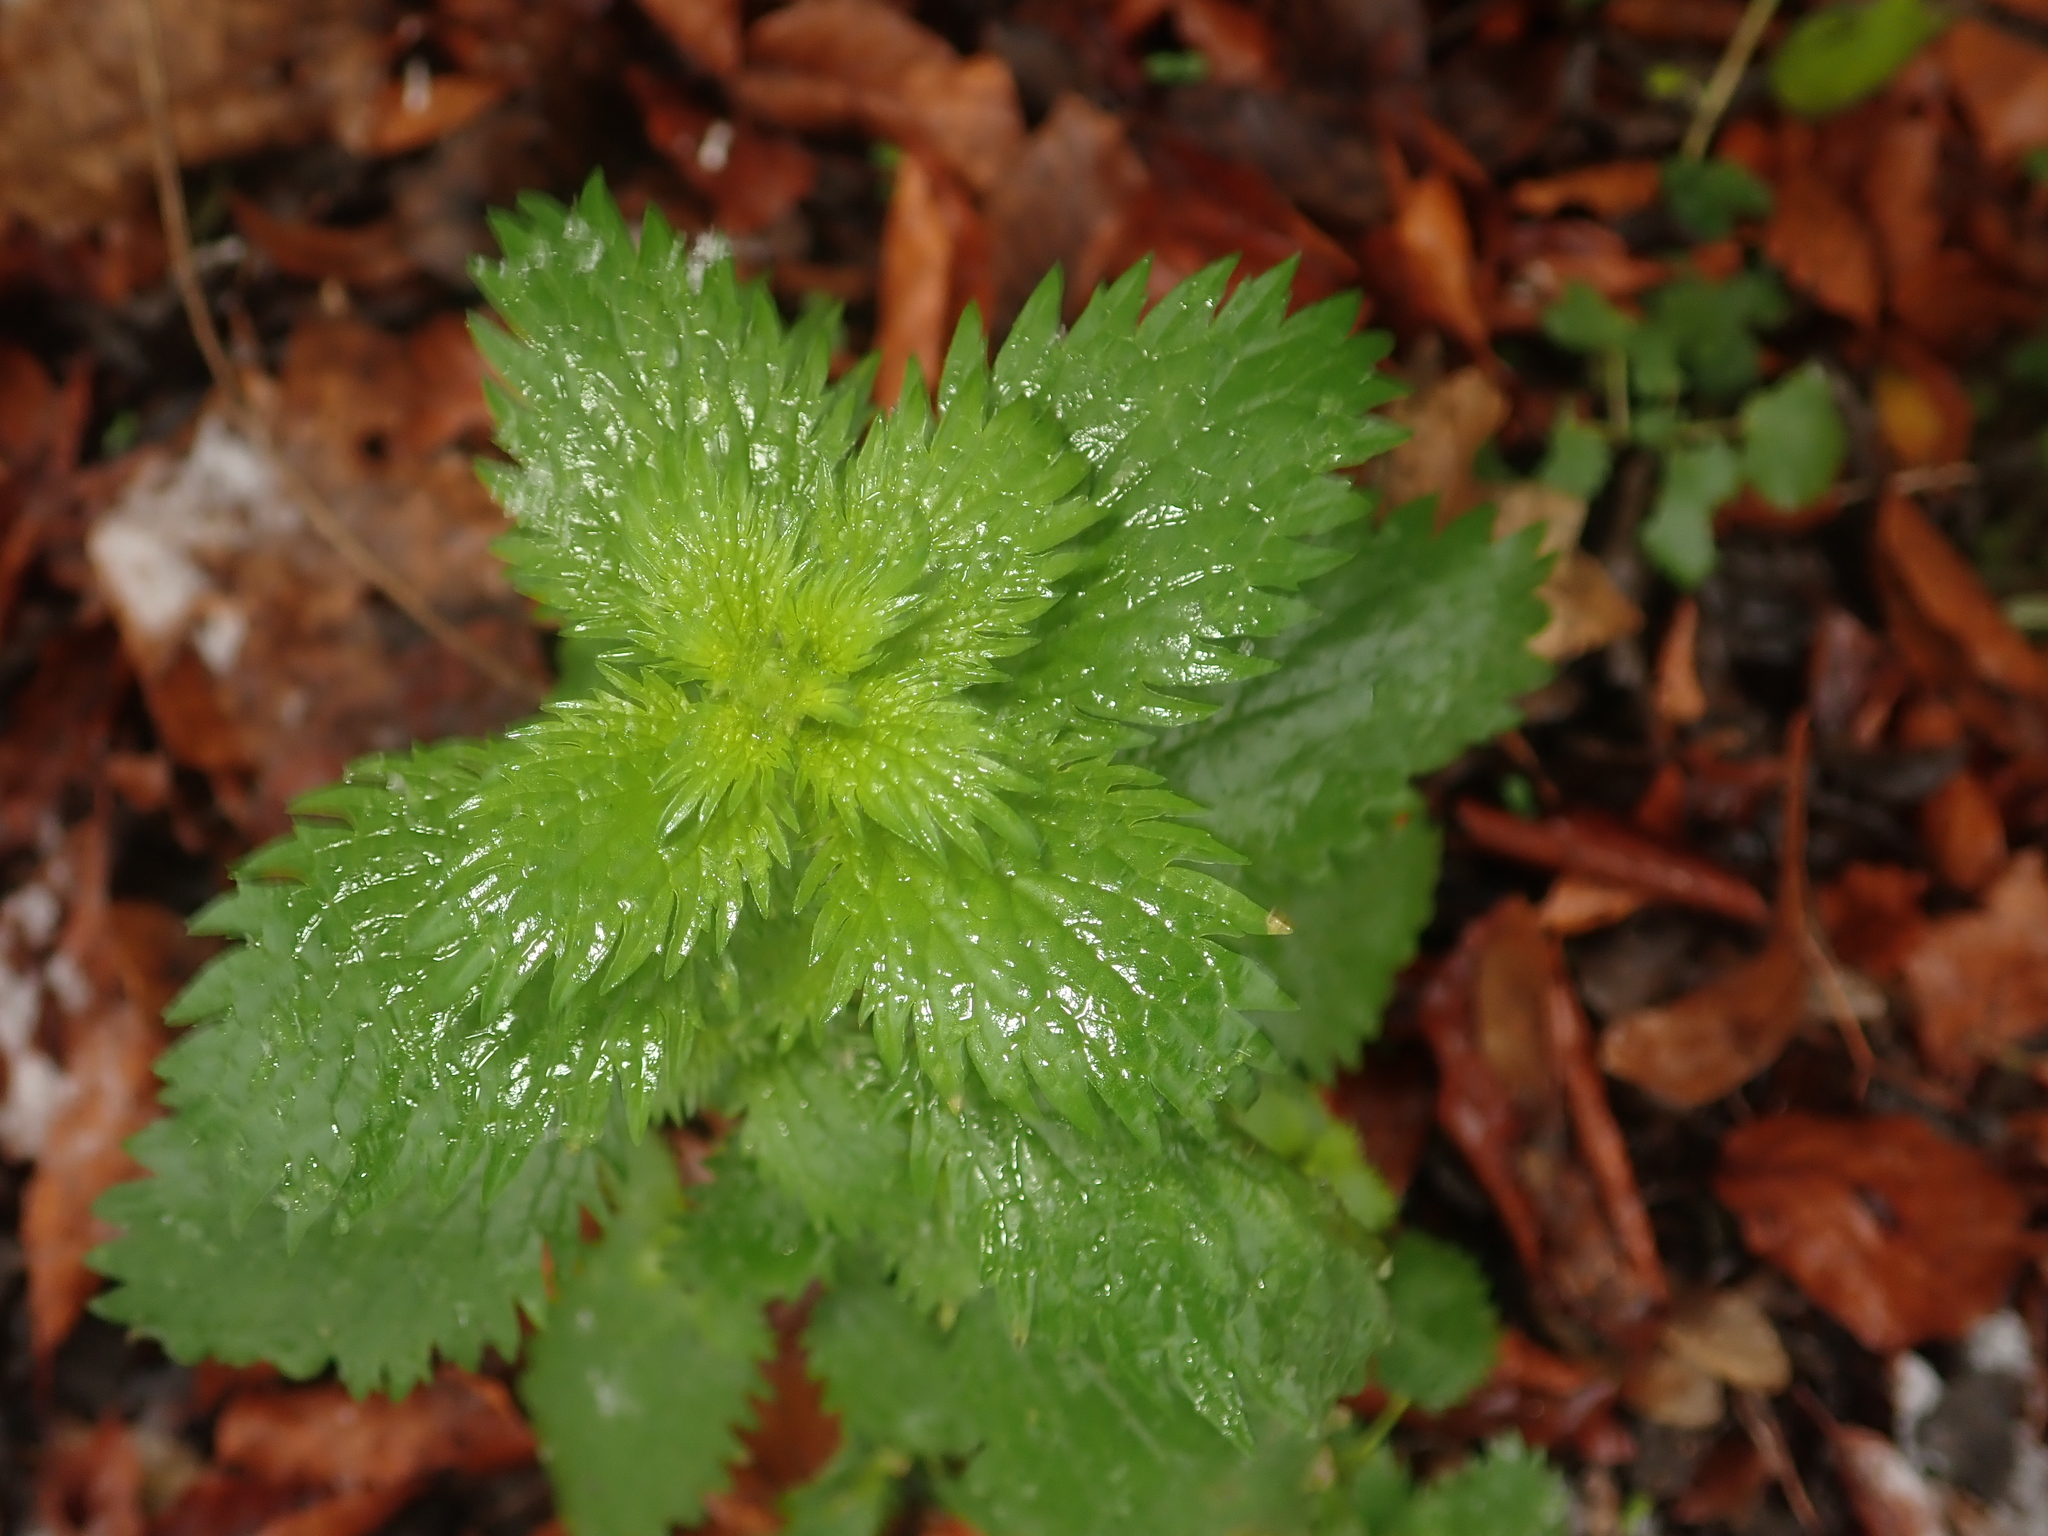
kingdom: Plantae
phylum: Tracheophyta
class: Magnoliopsida
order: Rosales
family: Urticaceae
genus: Urtica
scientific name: Urtica urens
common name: Dwarf nettle
